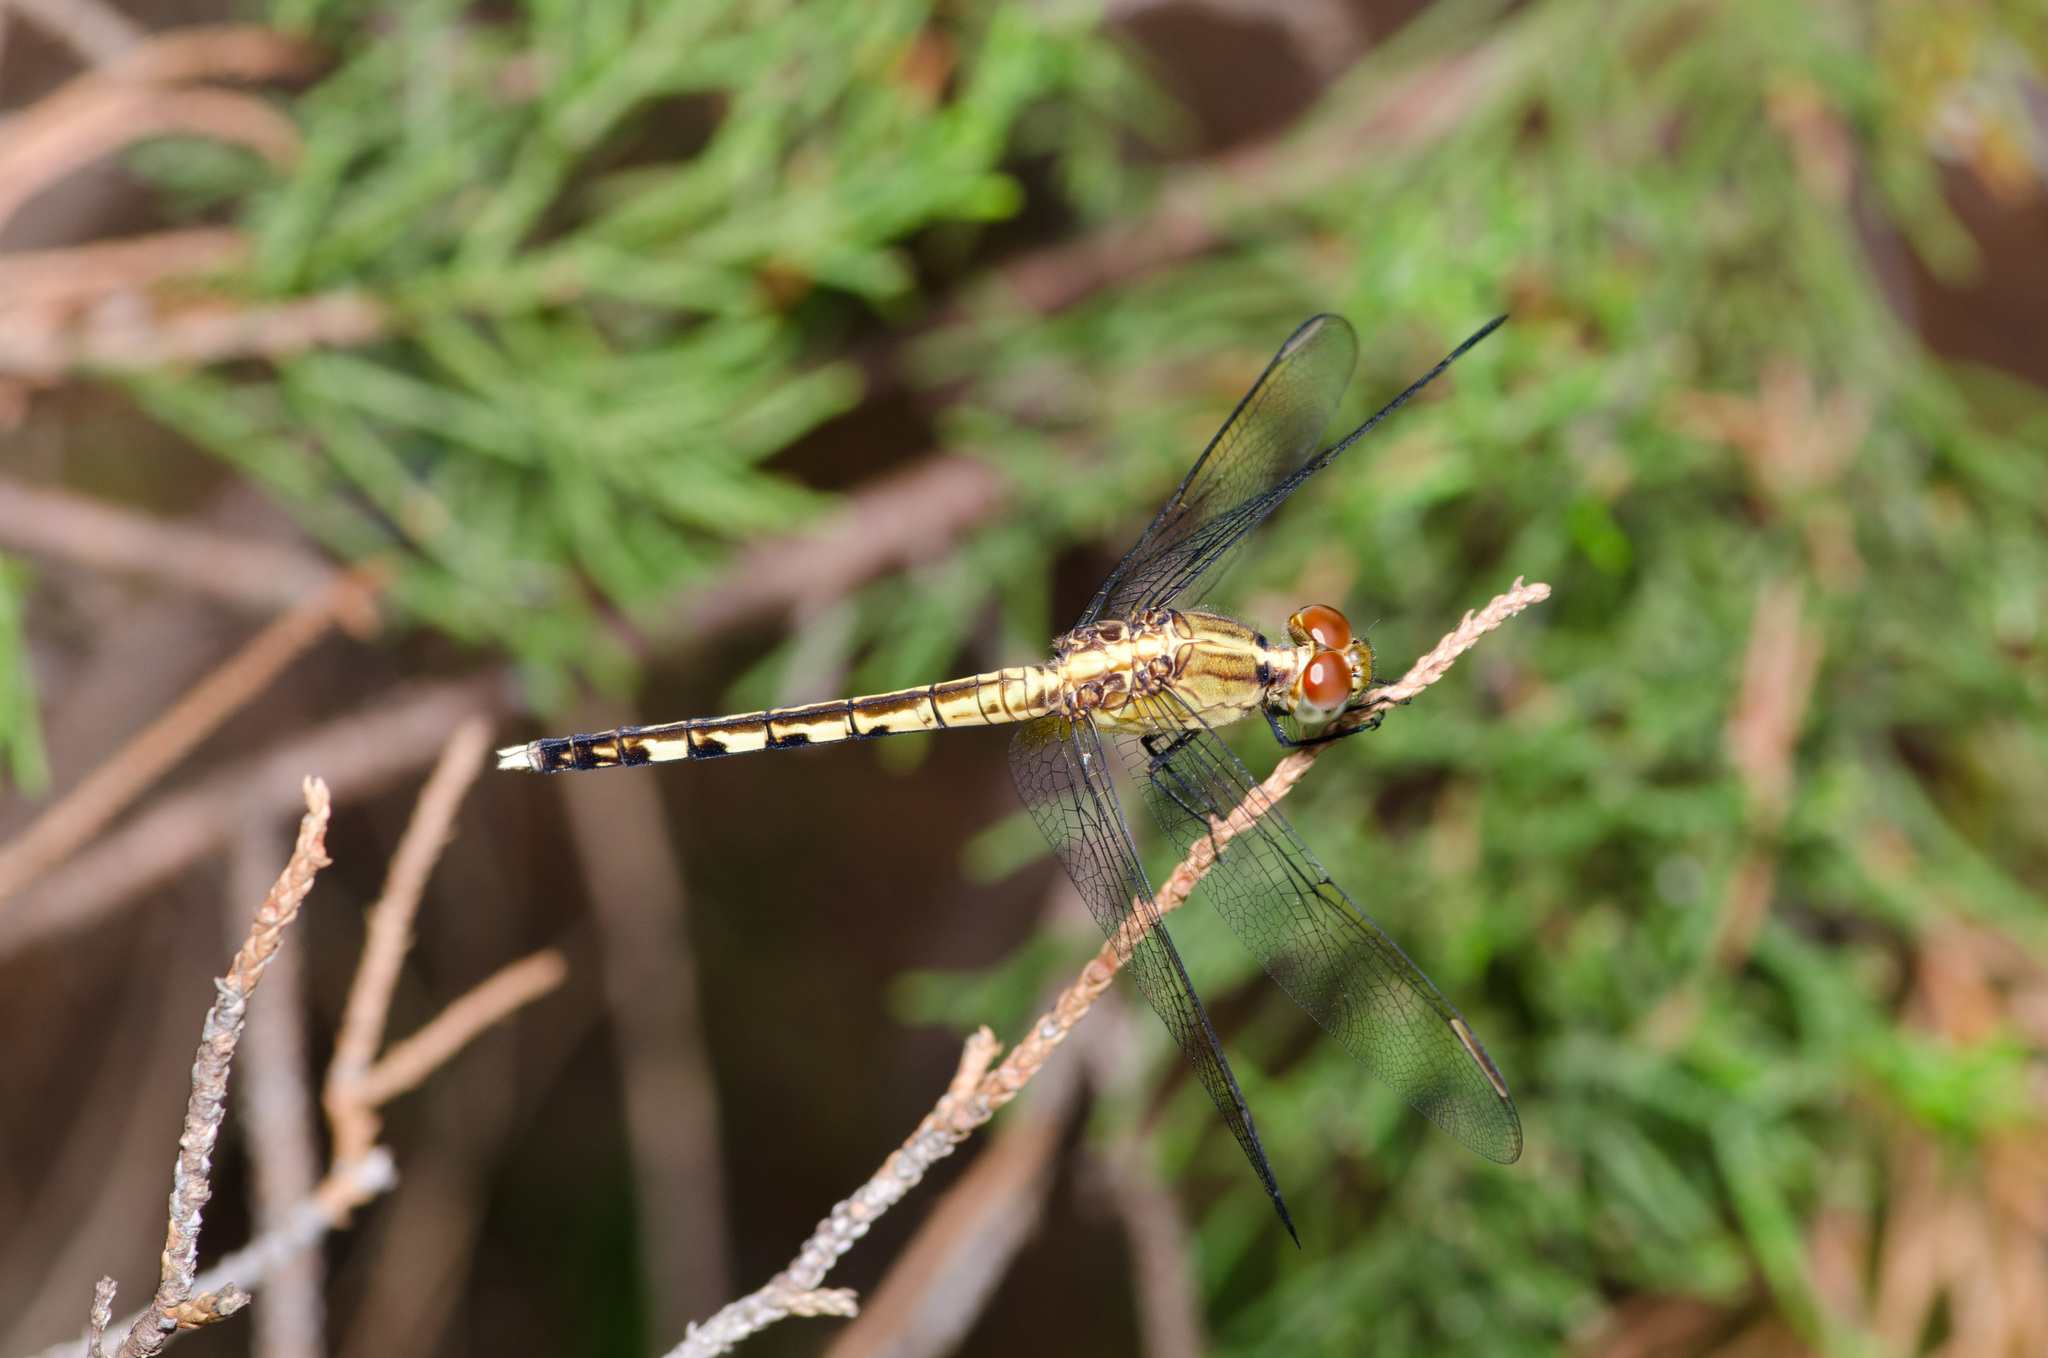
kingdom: Animalia
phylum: Arthropoda
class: Insecta
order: Odonata
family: Libellulidae
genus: Erythrodiplax
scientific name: Erythrodiplax umbrata
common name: Band-winged dragonlet
